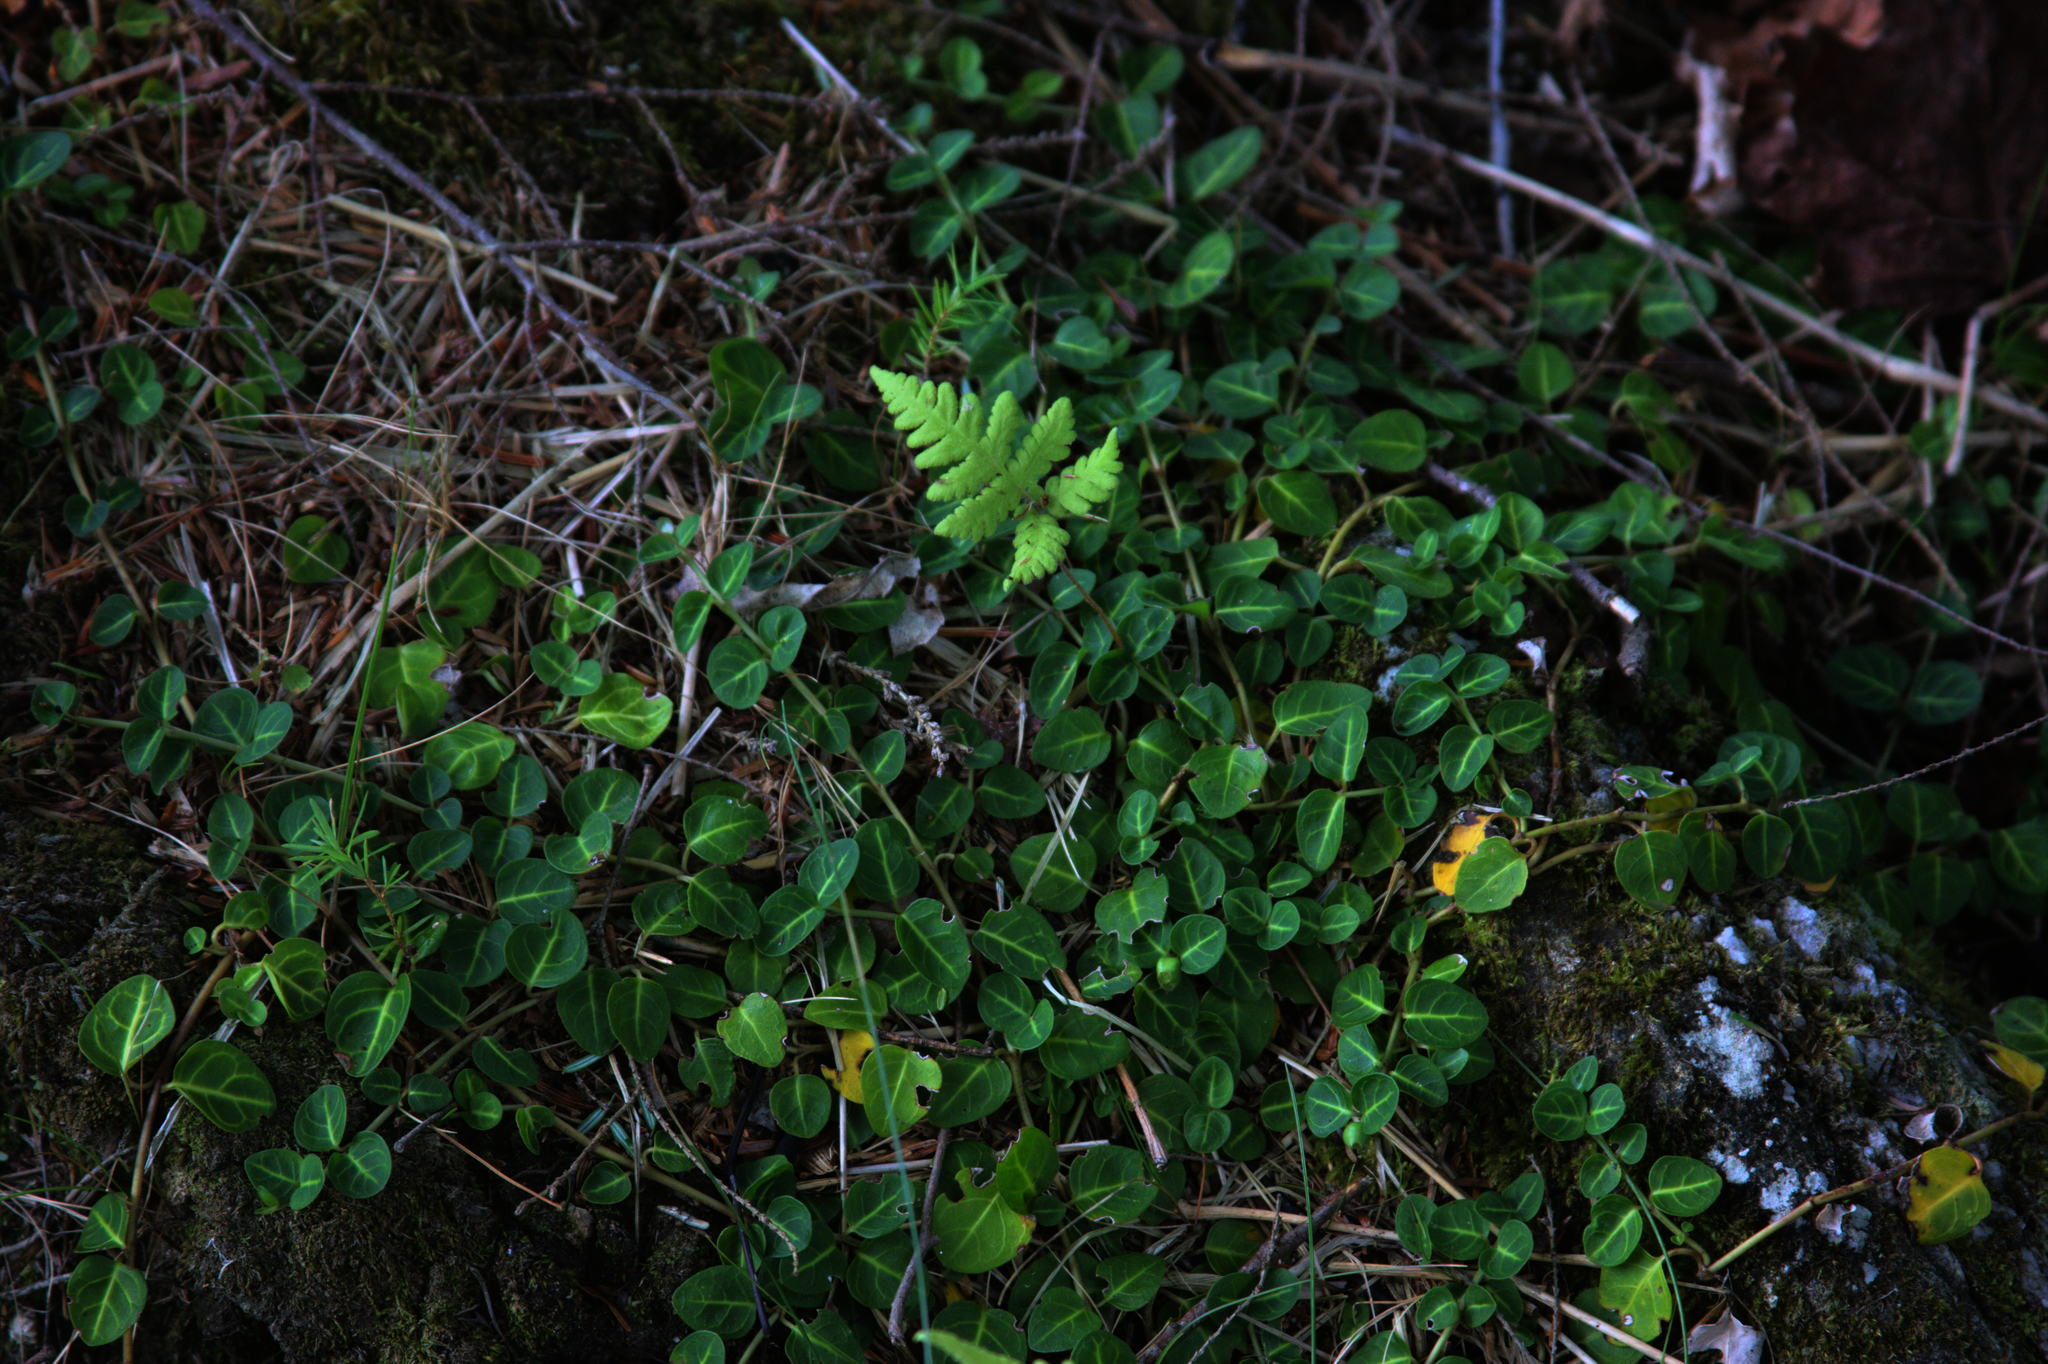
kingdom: Plantae
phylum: Tracheophyta
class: Magnoliopsida
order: Gentianales
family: Rubiaceae
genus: Mitchella
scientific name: Mitchella repens
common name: Partridge-berry
